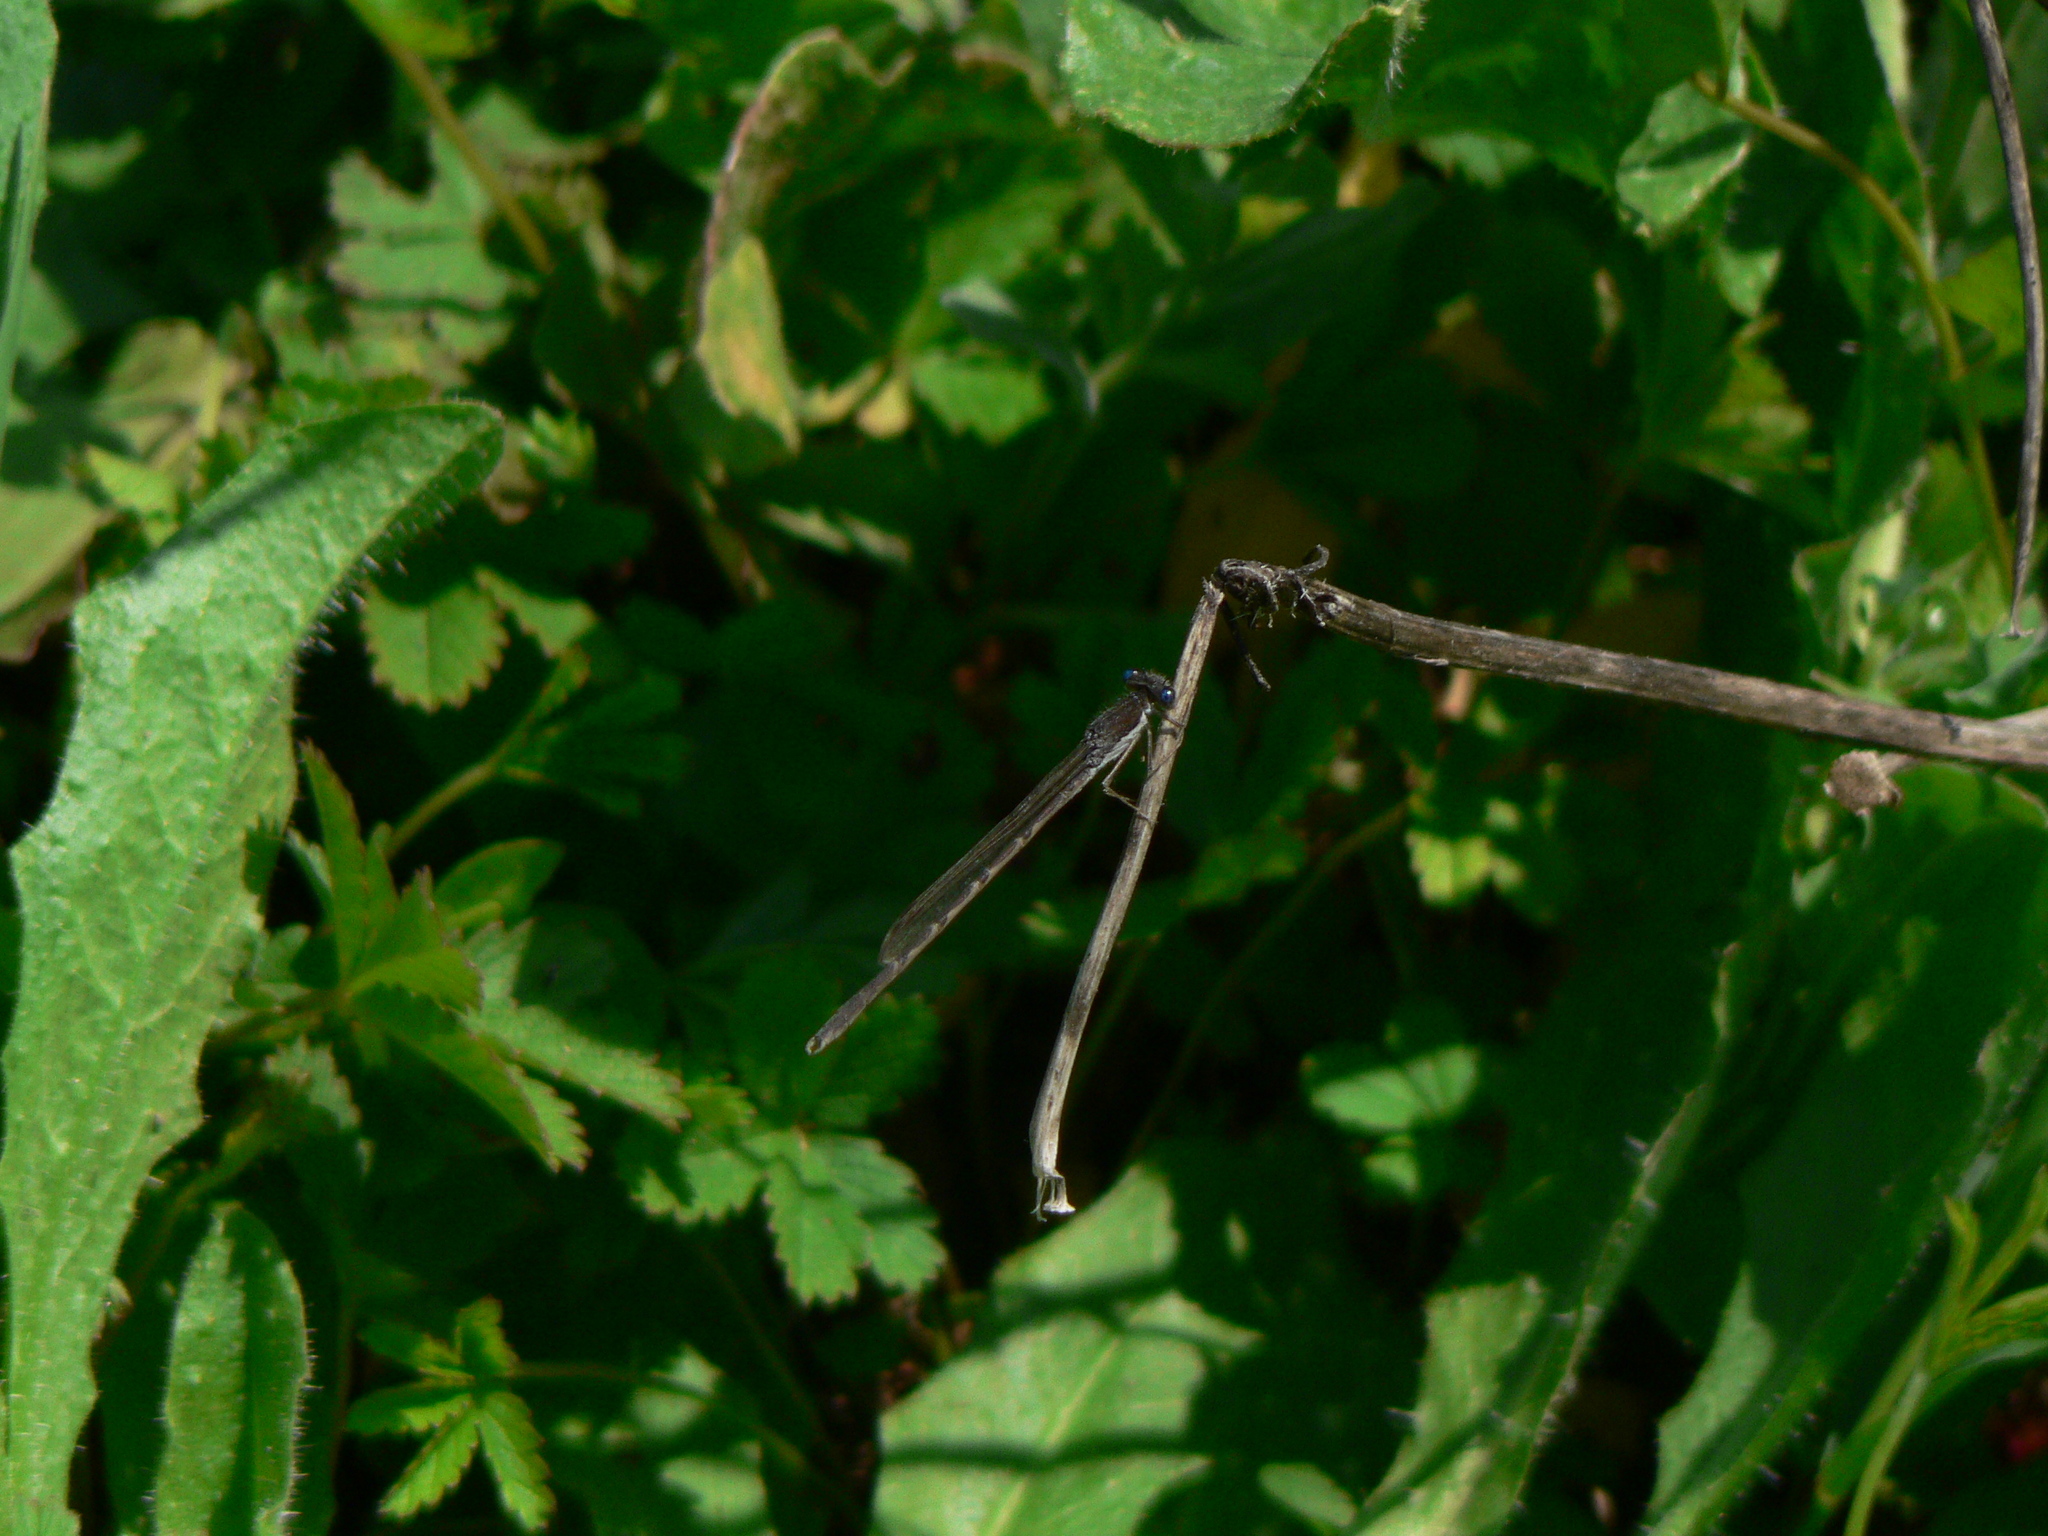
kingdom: Animalia
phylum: Arthropoda
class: Insecta
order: Odonata
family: Lestidae
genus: Sympecma
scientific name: Sympecma fusca
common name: Common winter damsel
